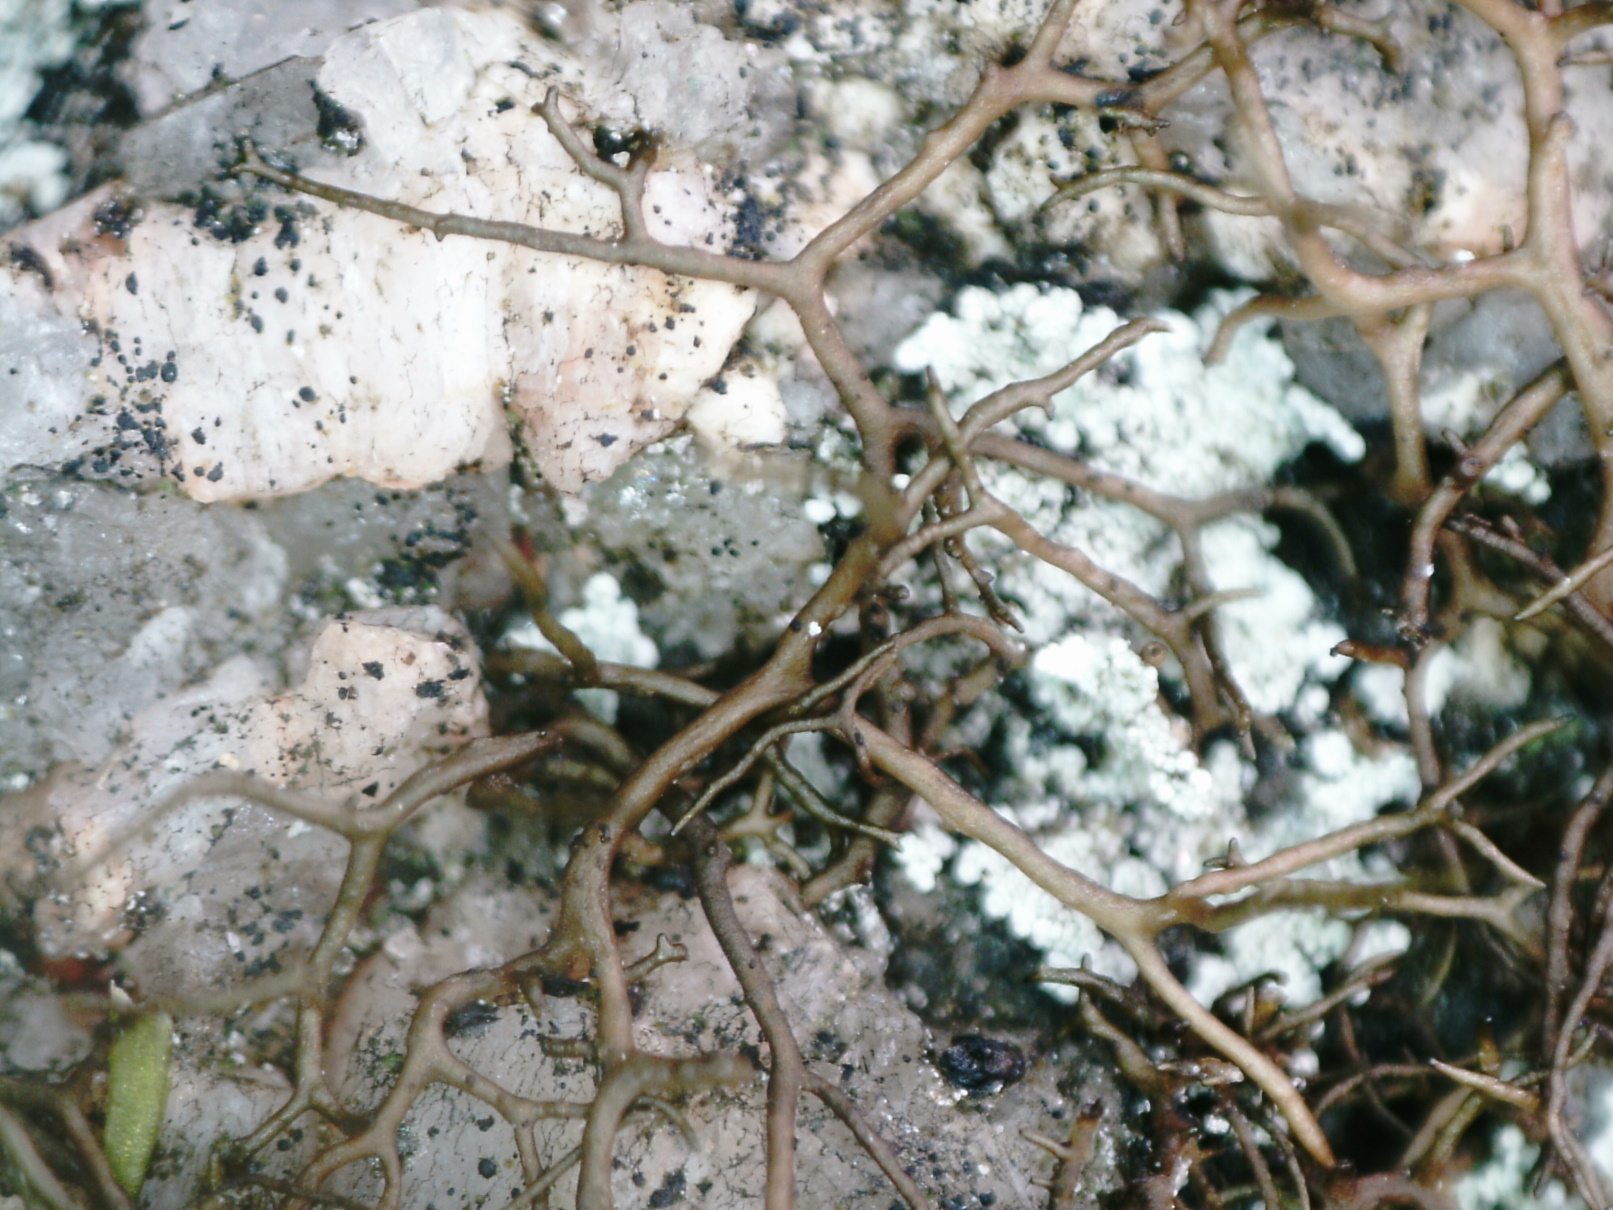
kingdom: Fungi
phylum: Ascomycota
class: Lecanoromycetes
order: Lecanorales
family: Parmeliaceae
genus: Pseudephebe
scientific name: Pseudephebe pubescens
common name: Fine rockwool lichen
